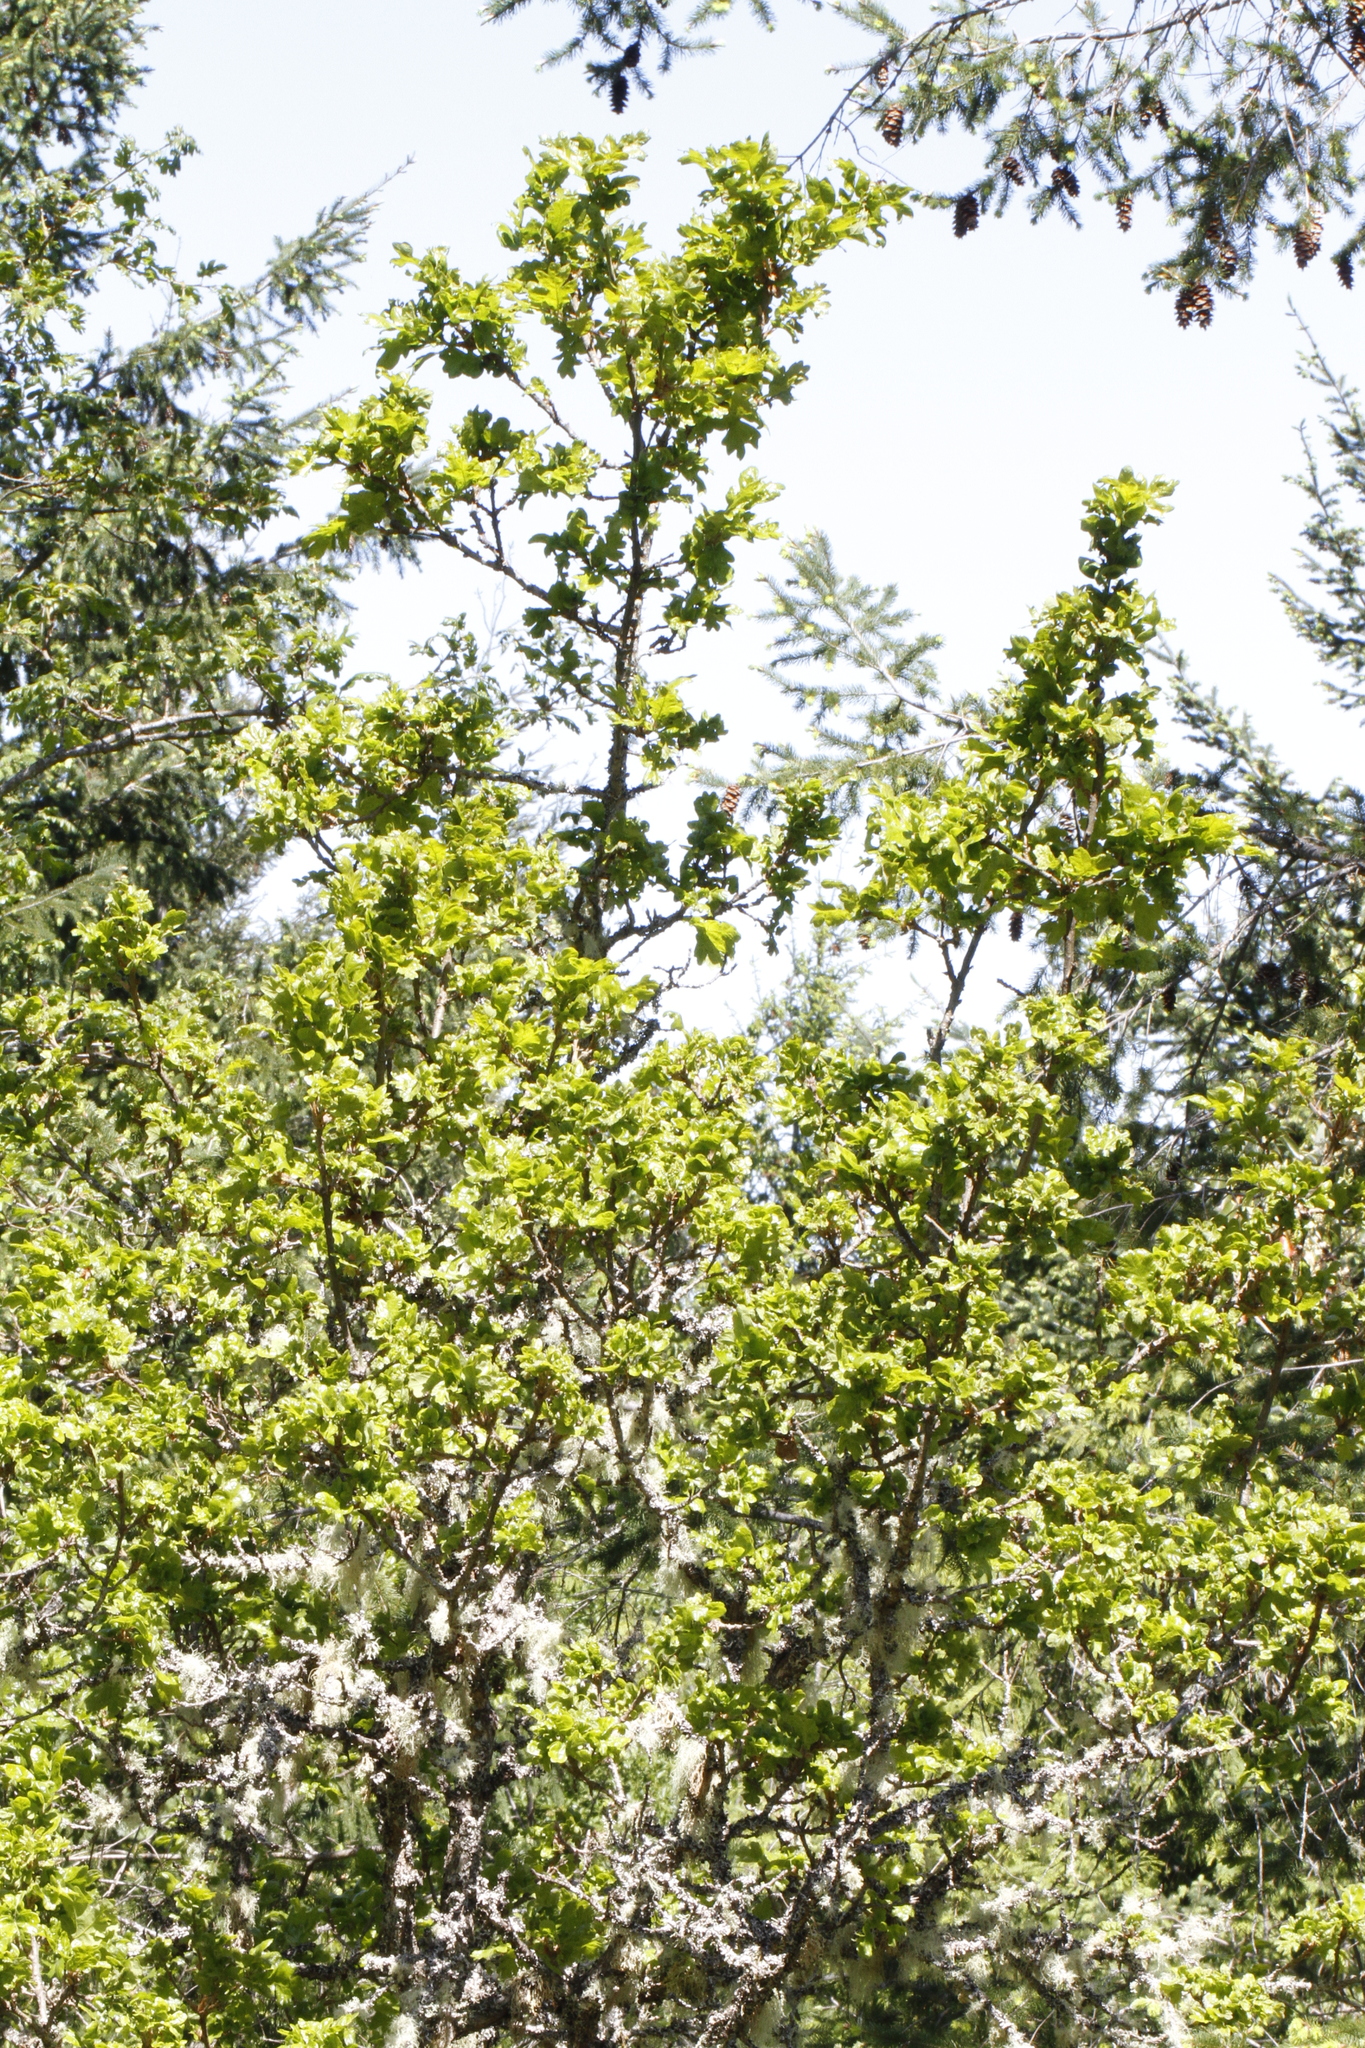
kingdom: Plantae
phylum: Tracheophyta
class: Magnoliopsida
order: Fagales
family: Fagaceae
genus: Quercus
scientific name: Quercus garryana
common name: Garry oak
